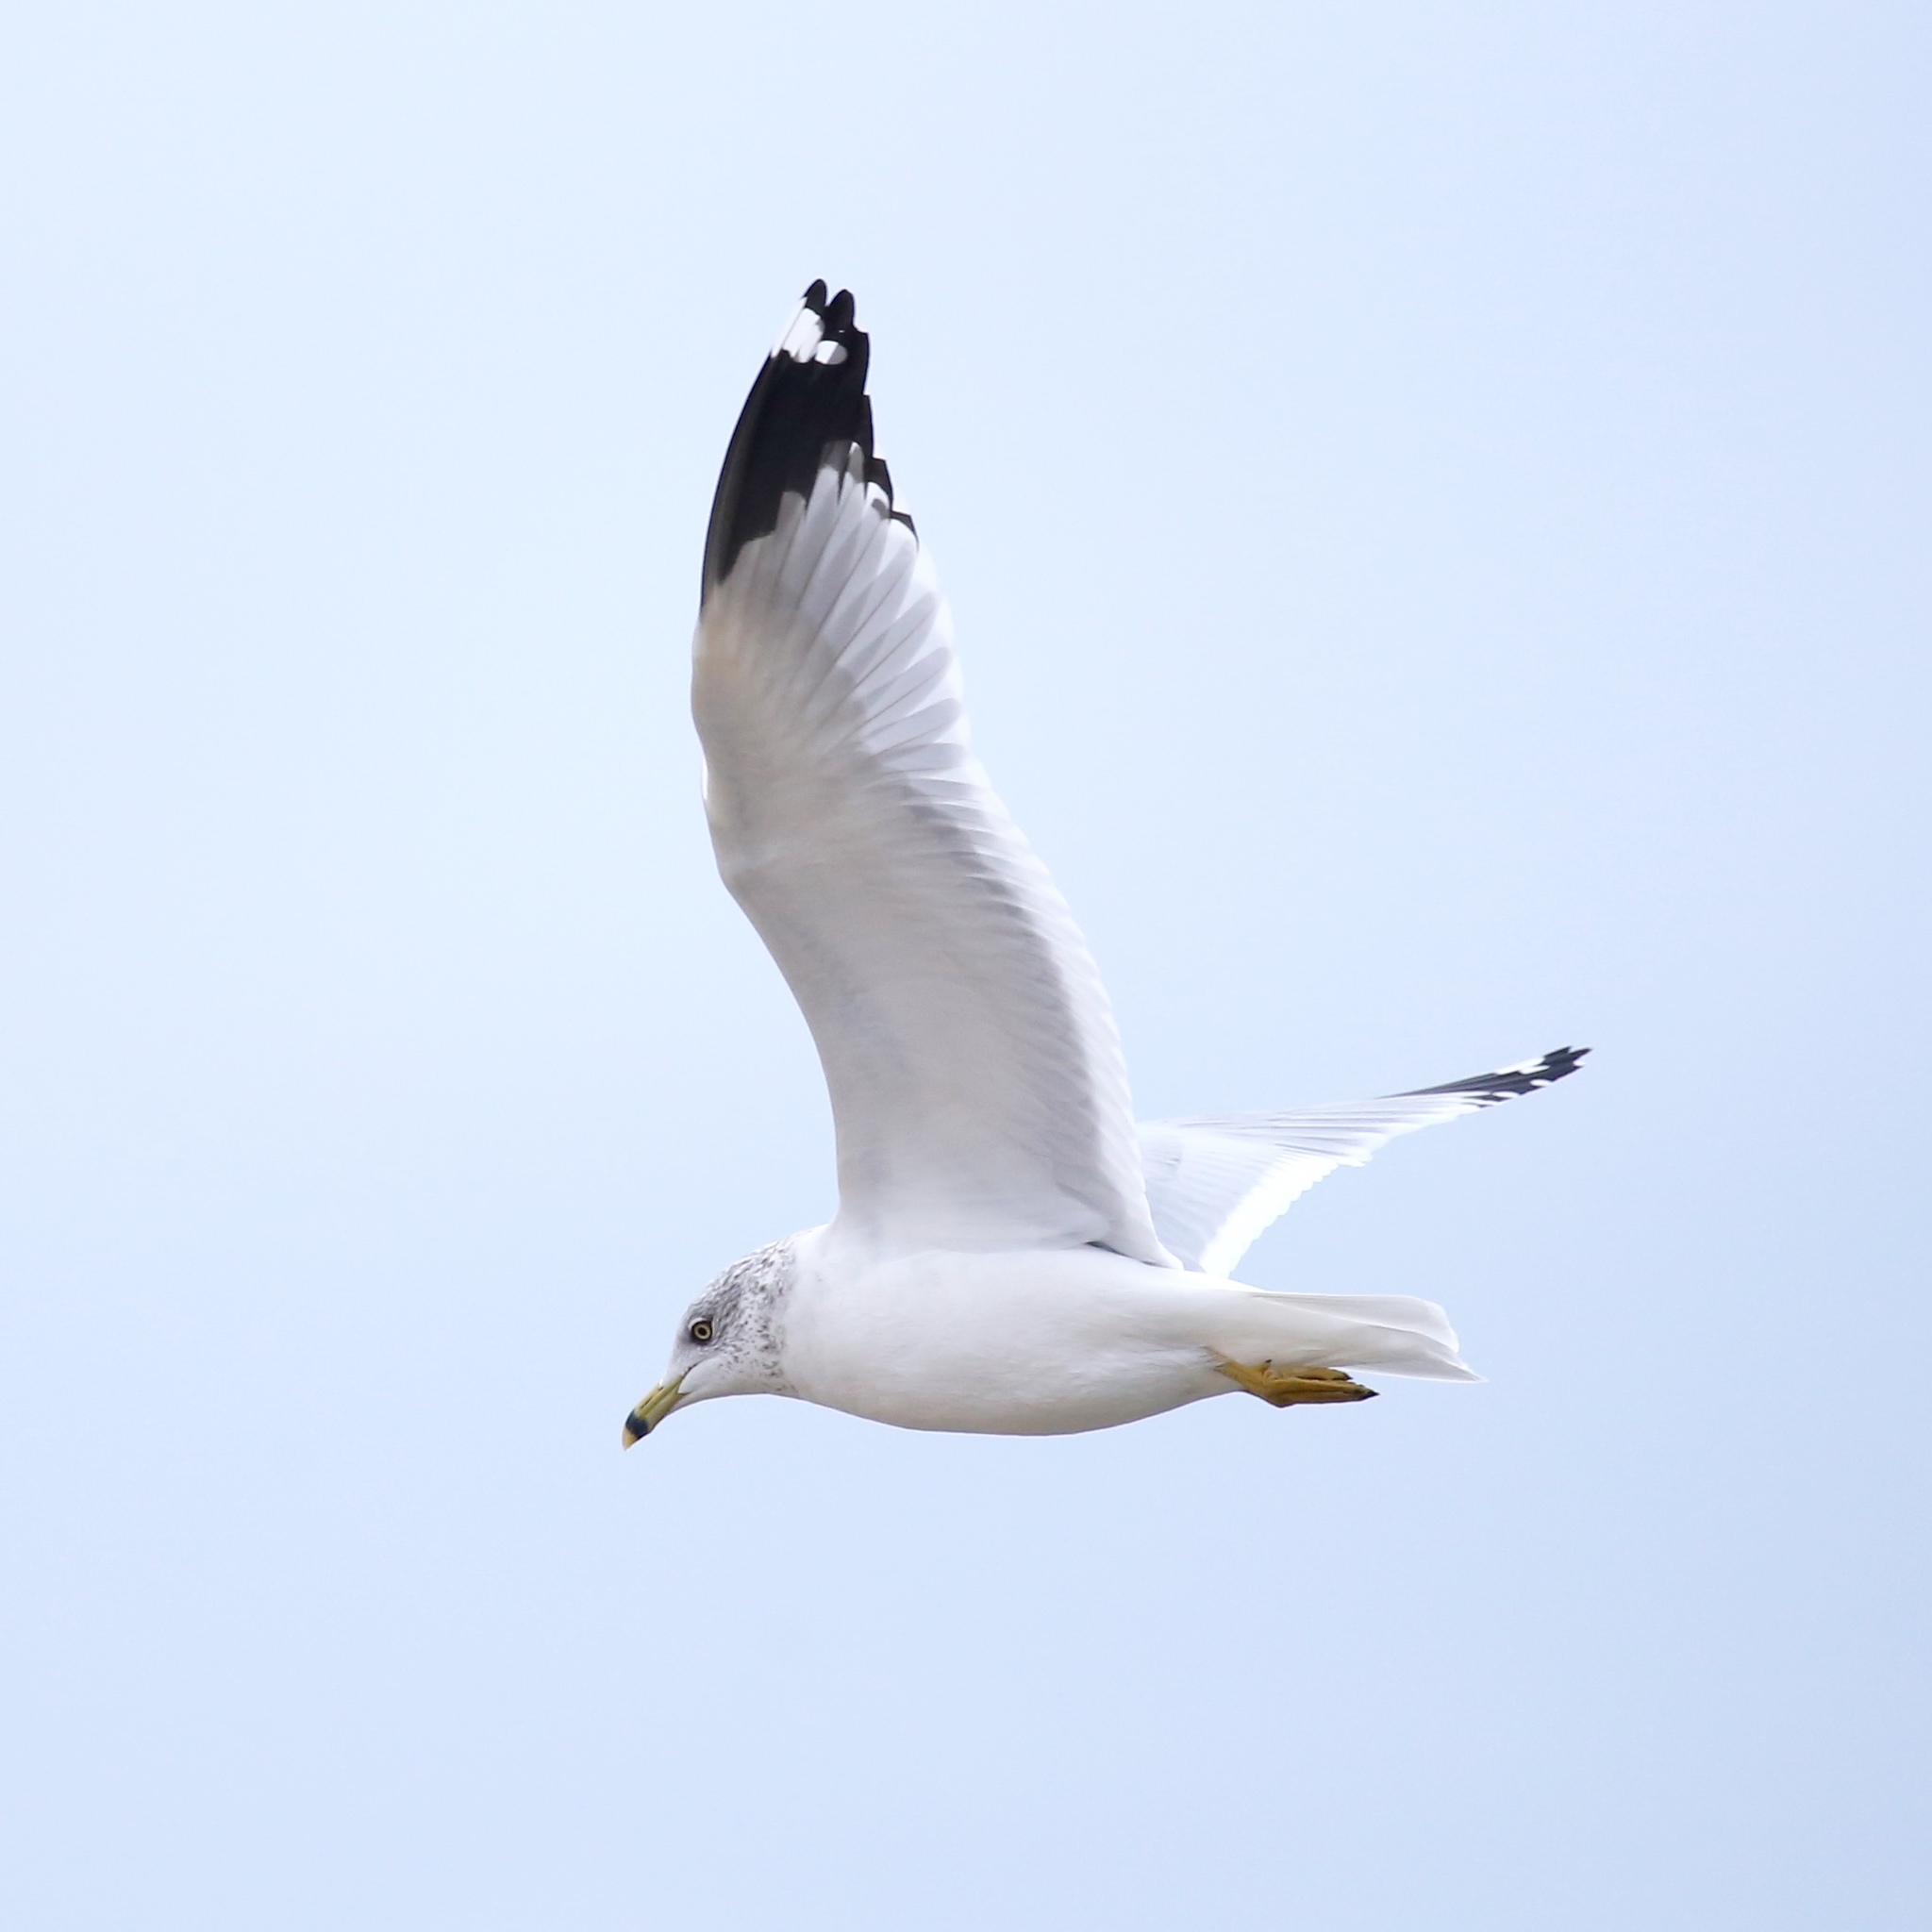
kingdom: Animalia
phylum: Chordata
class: Aves
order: Charadriiformes
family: Laridae
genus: Larus
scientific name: Larus delawarensis
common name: Ring-billed gull
